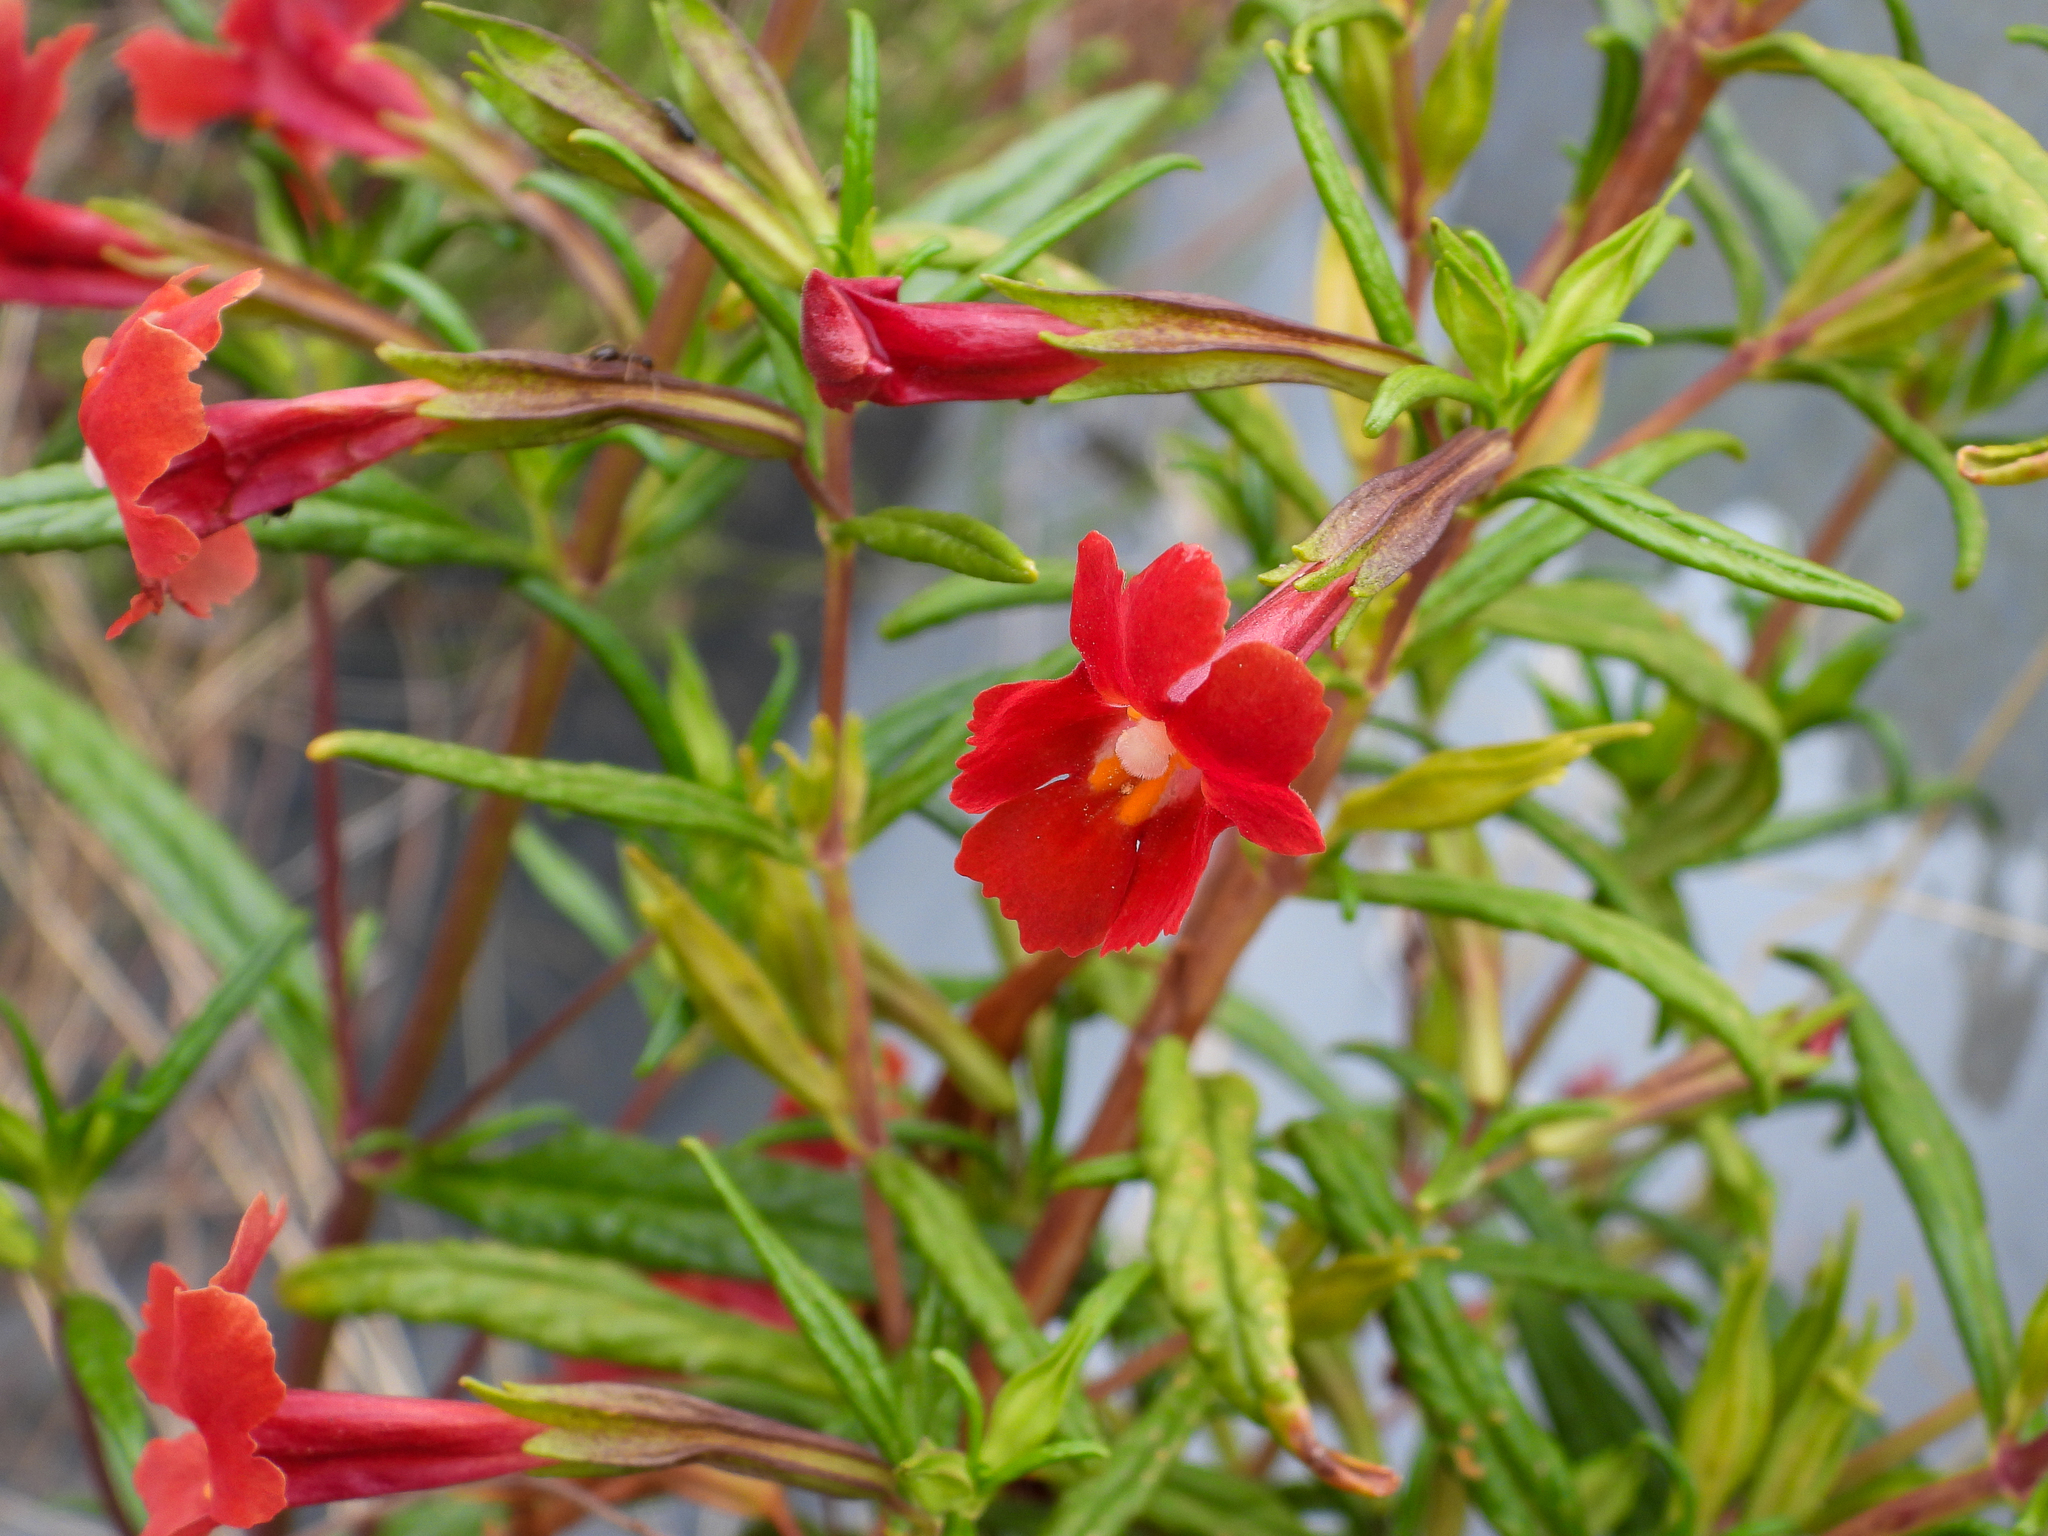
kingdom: Plantae
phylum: Tracheophyta
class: Magnoliopsida
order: Lamiales
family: Phrymaceae
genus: Diplacus
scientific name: Diplacus puniceus
